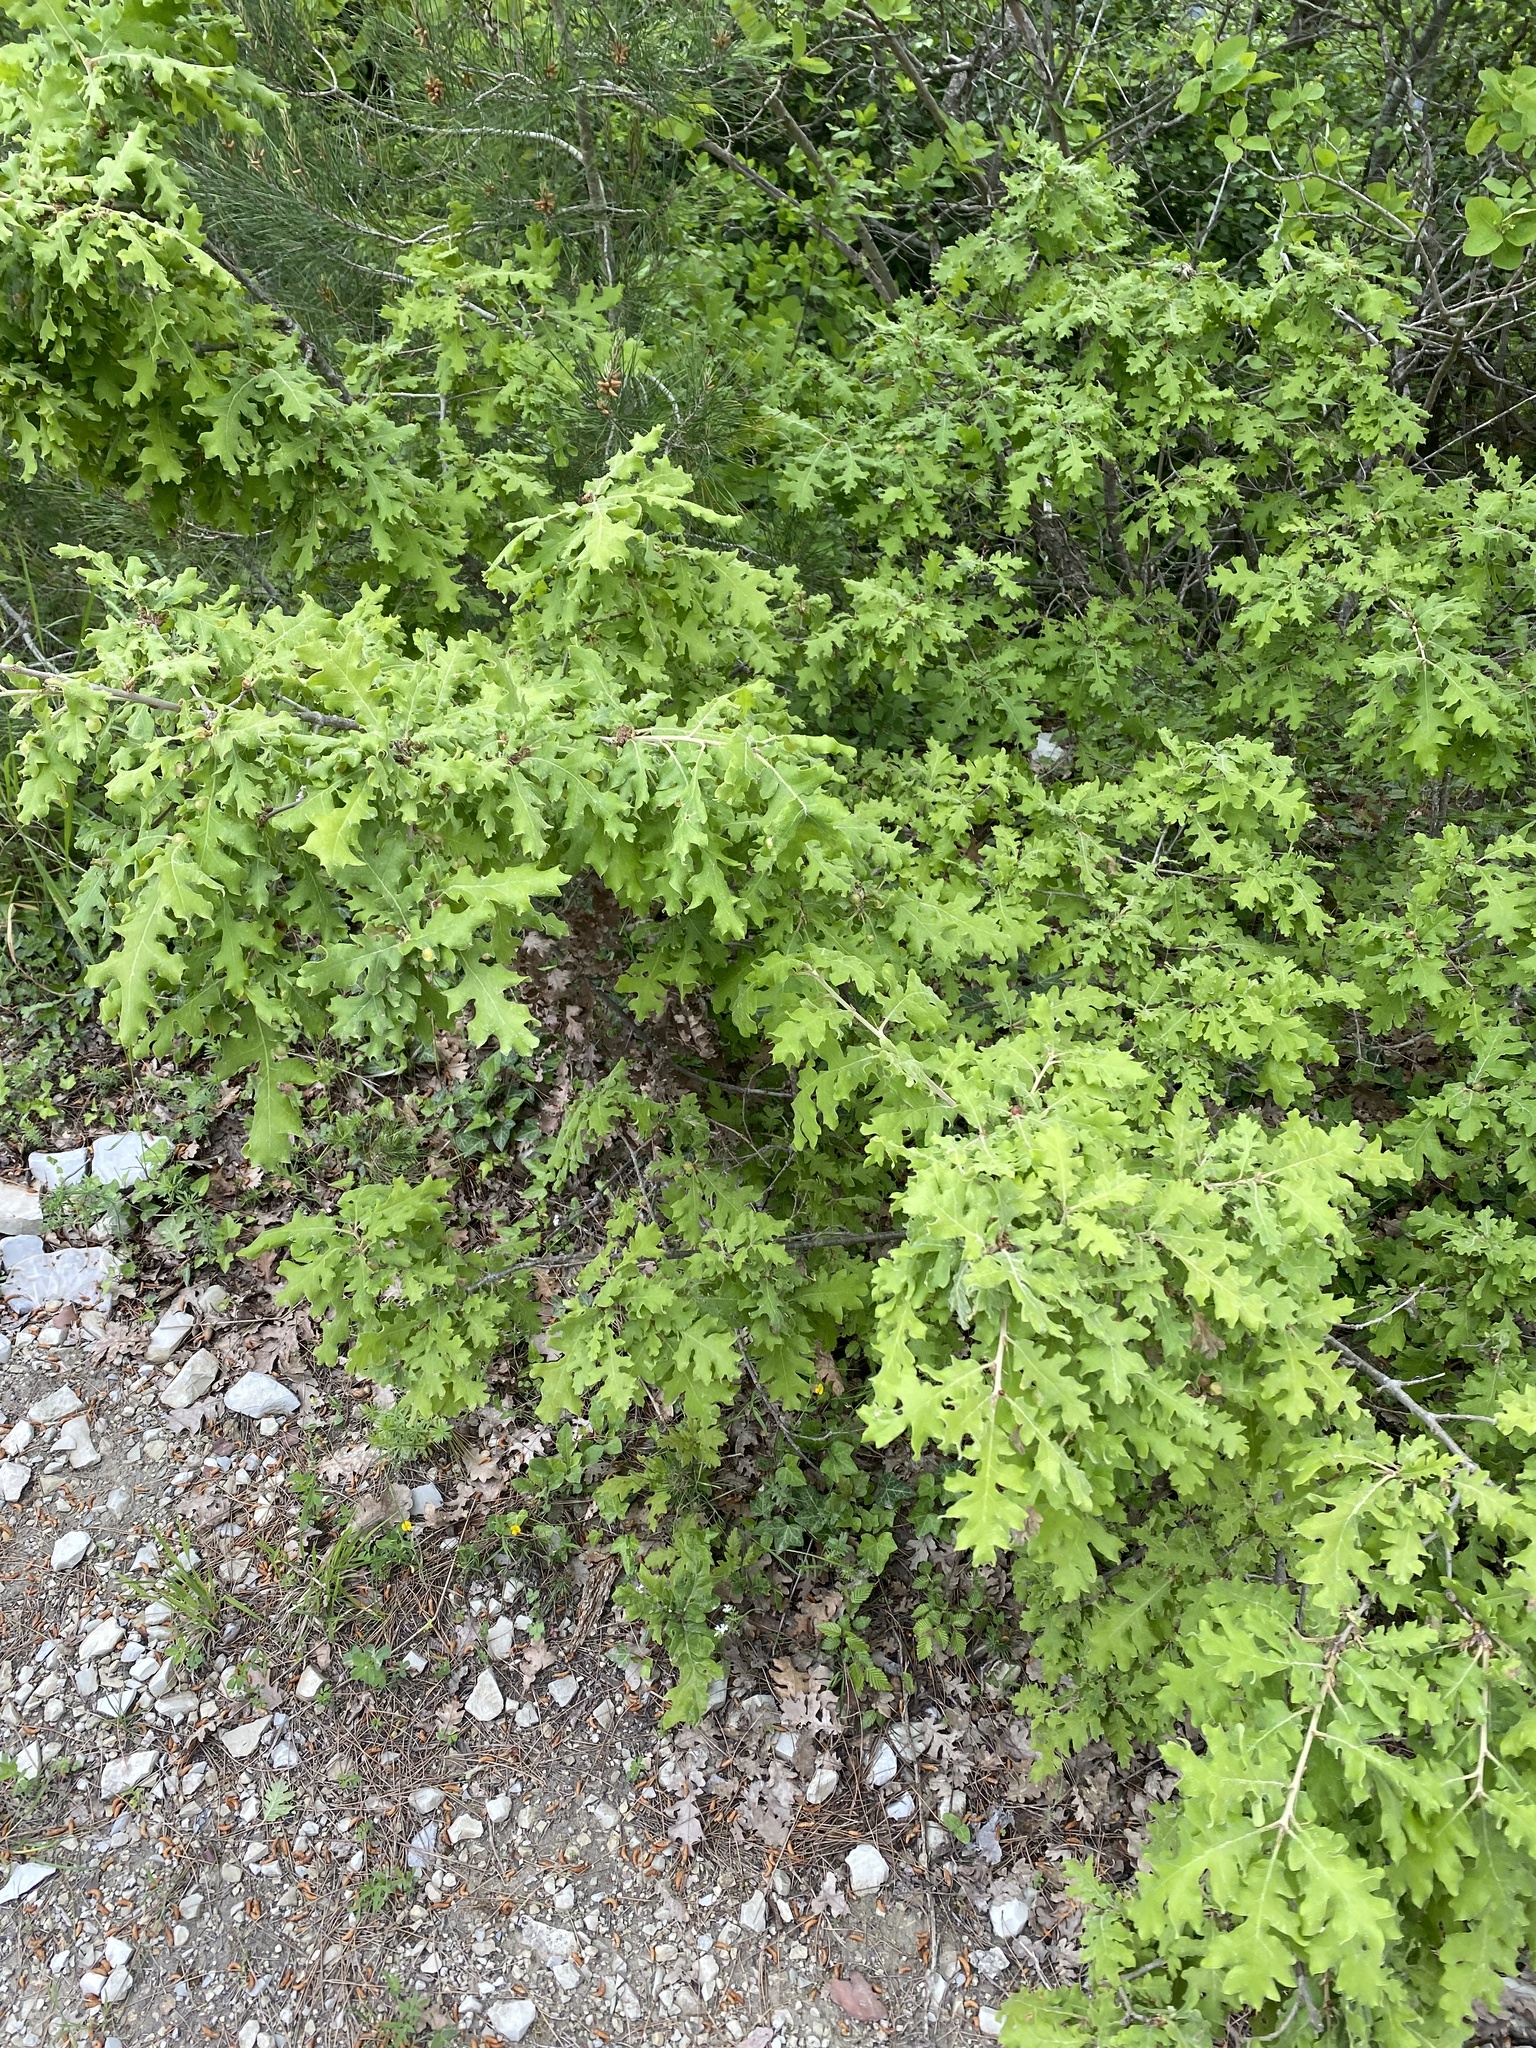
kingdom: Plantae
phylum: Tracheophyta
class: Magnoliopsida
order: Fagales
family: Fagaceae
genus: Quercus
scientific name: Quercus pubescens
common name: Downy oak
